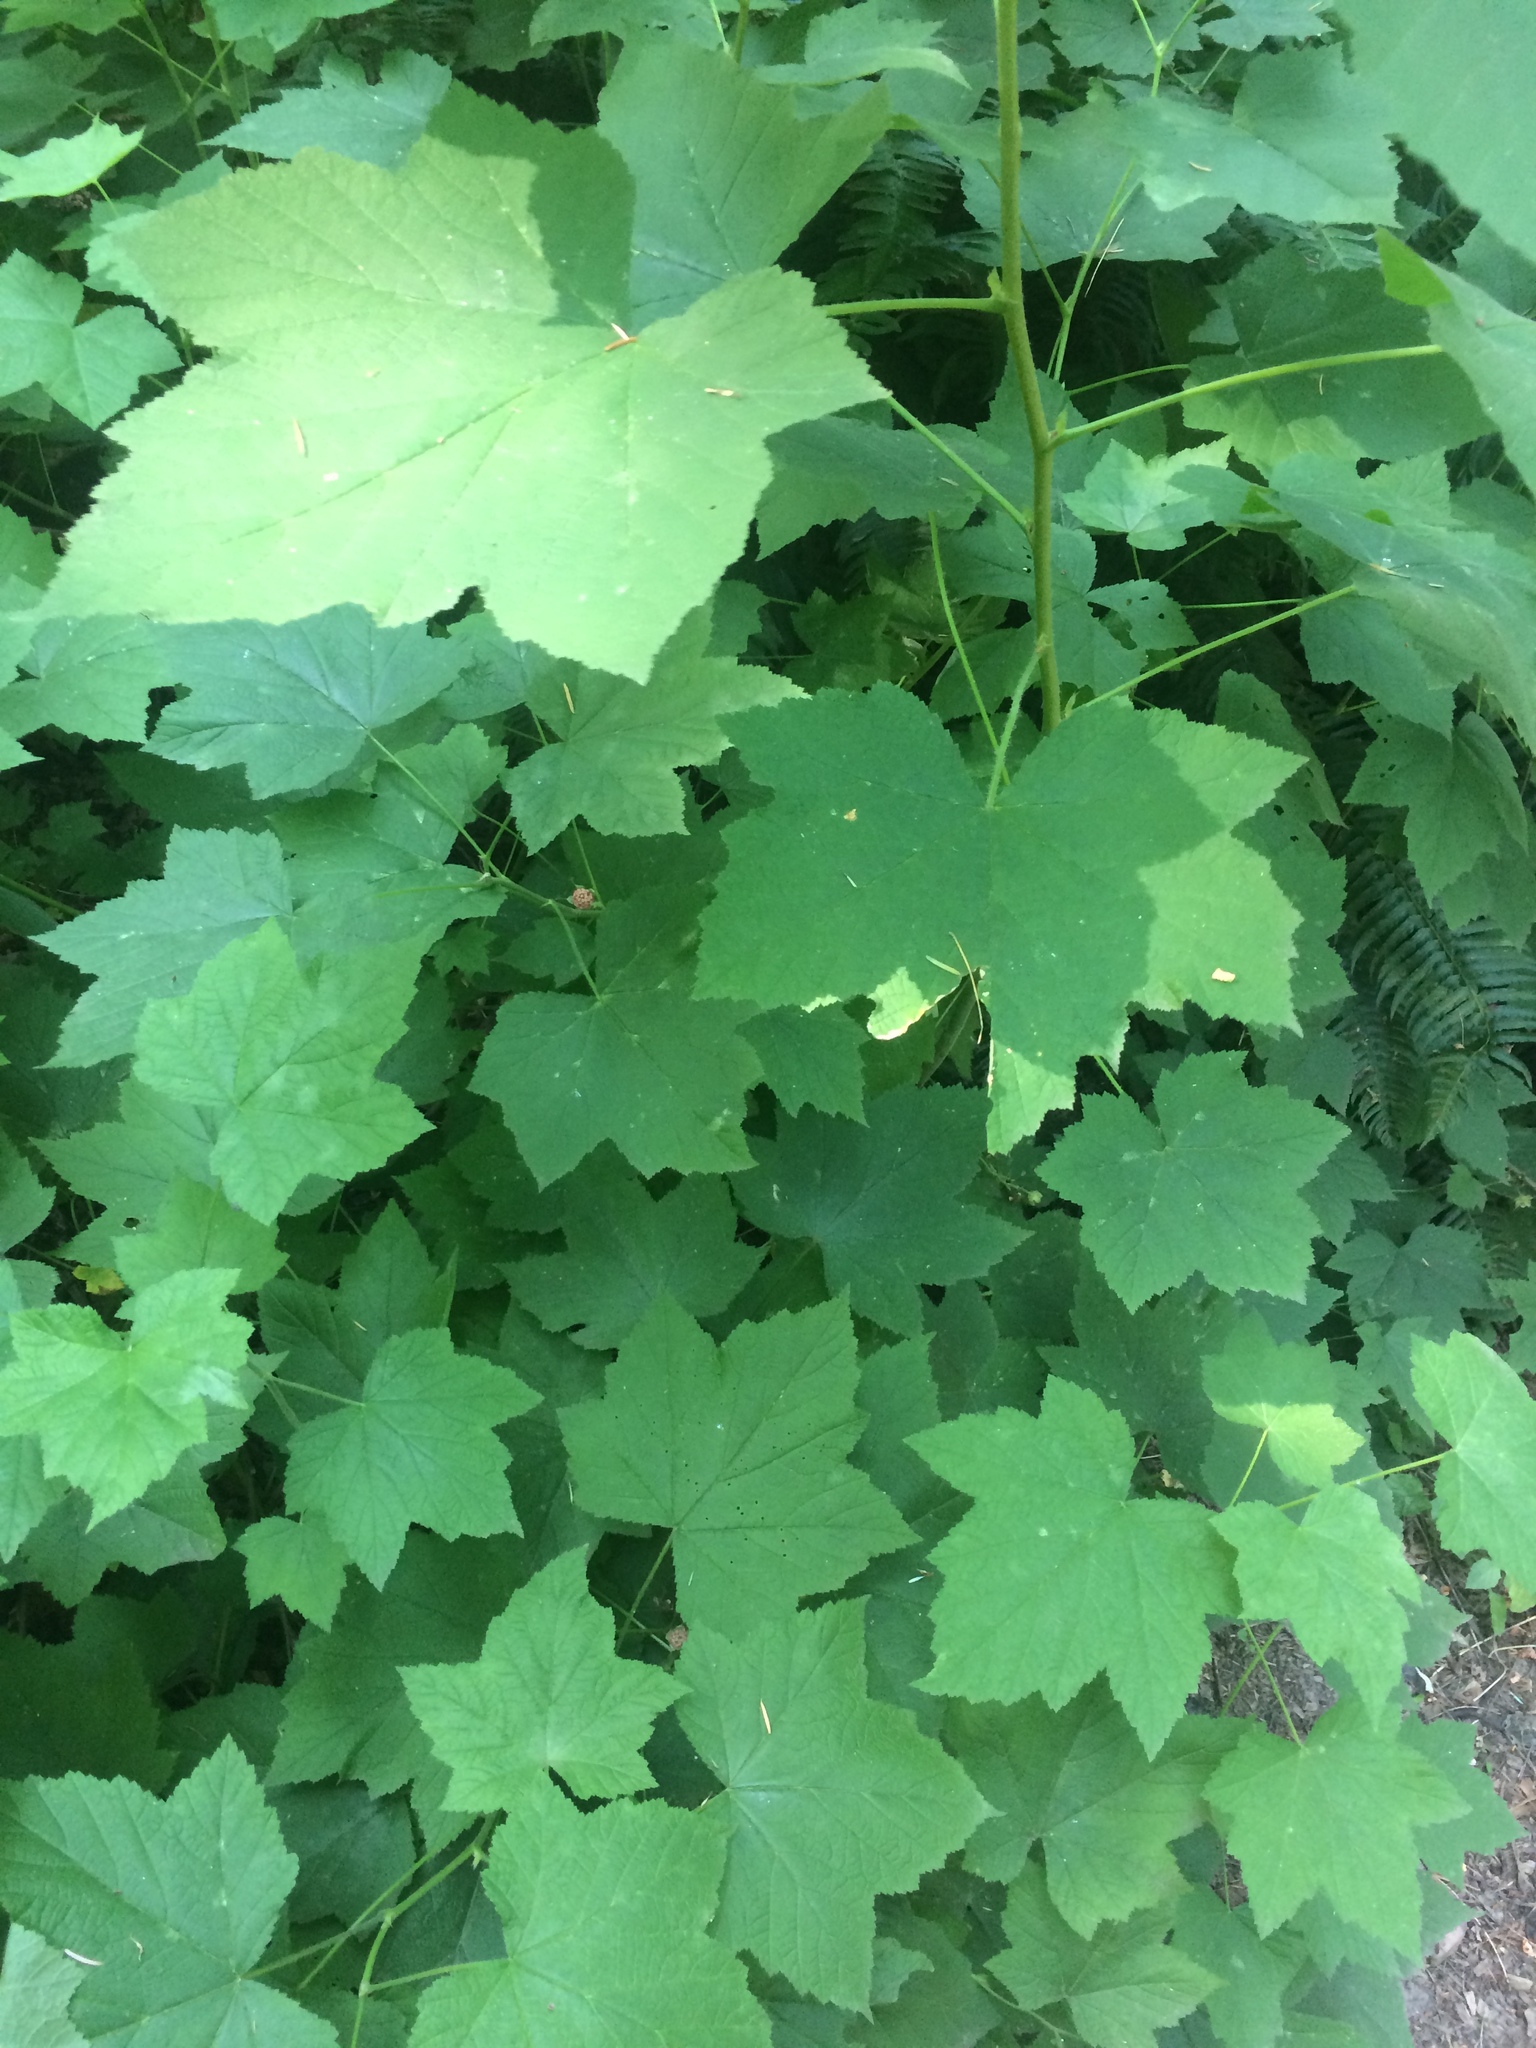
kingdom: Plantae
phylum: Tracheophyta
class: Magnoliopsida
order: Rosales
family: Rosaceae
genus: Rubus
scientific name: Rubus parviflorus
